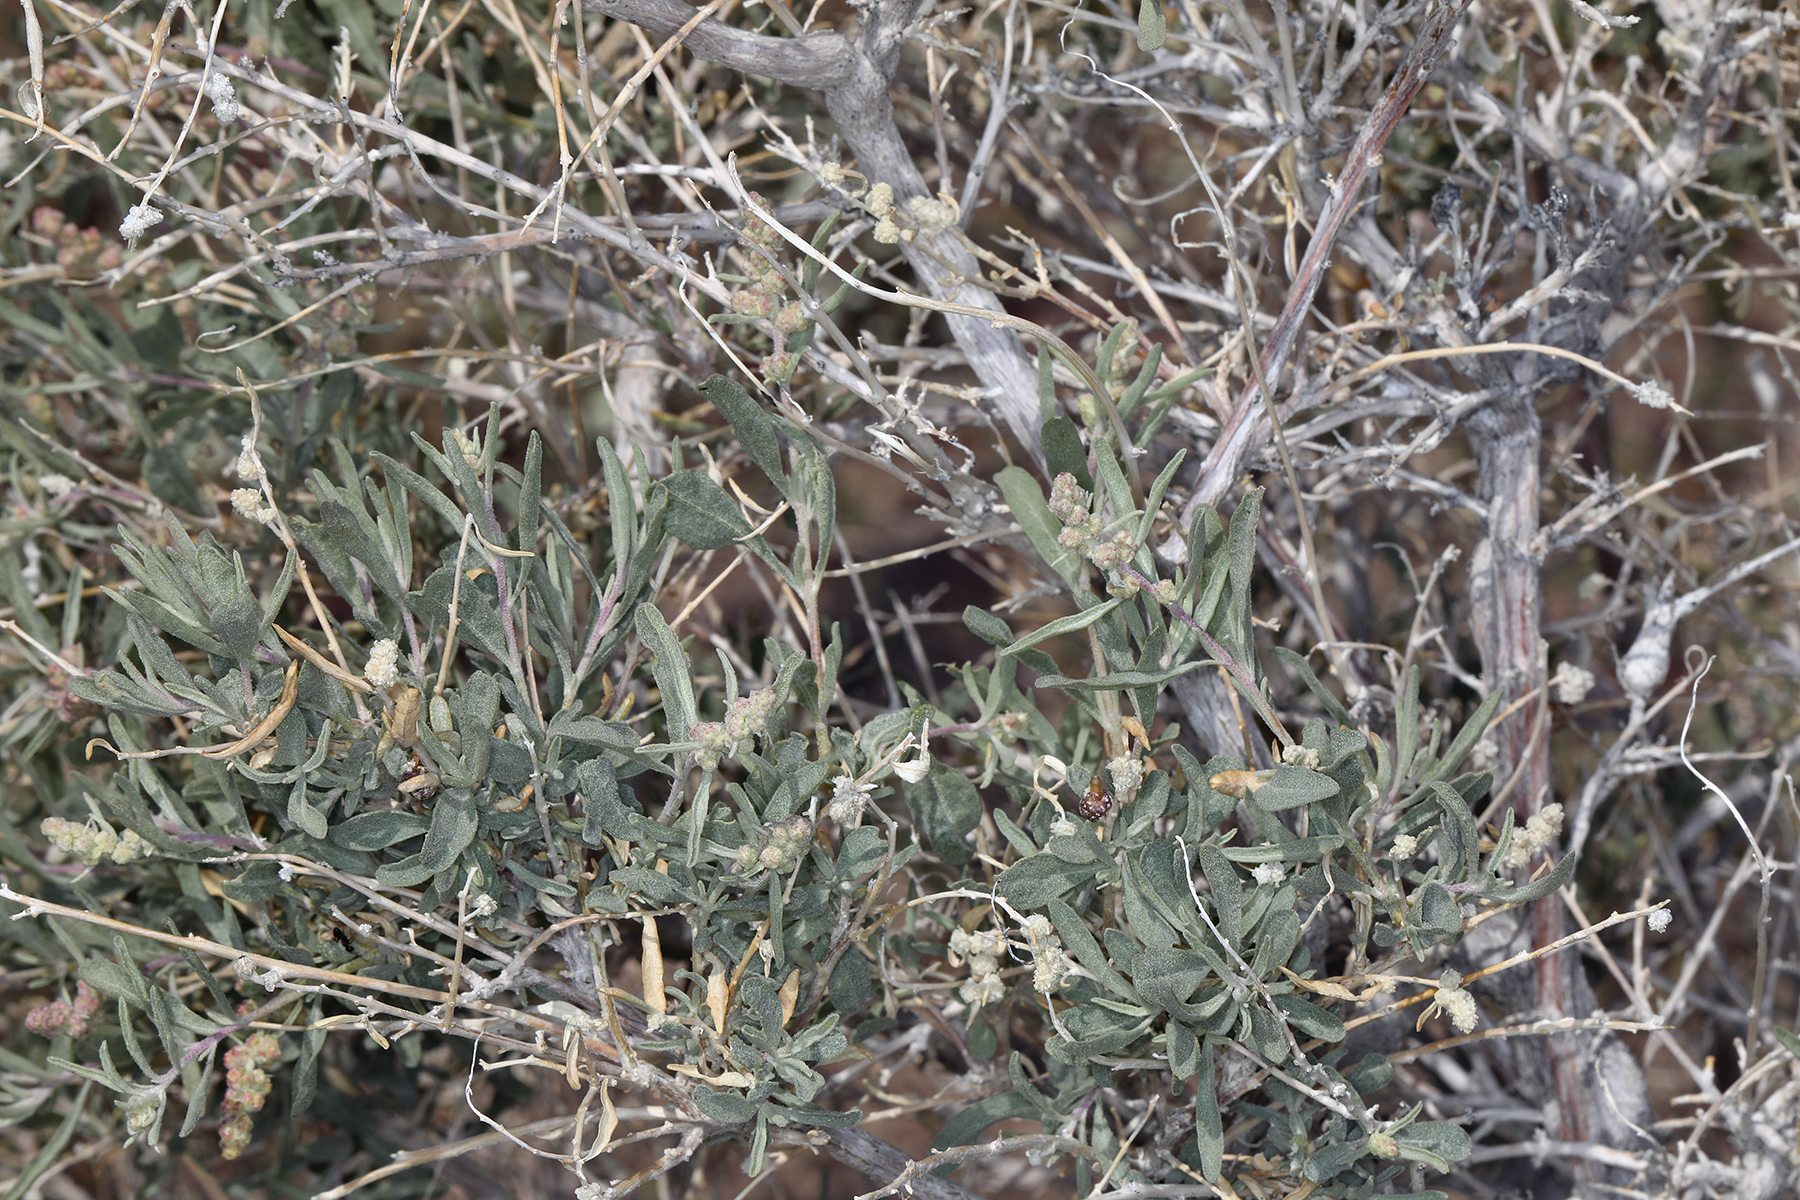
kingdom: Plantae
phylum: Tracheophyta
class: Magnoliopsida
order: Caryophyllales
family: Amaranthaceae
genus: Atriplex
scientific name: Atriplex canescens
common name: Four-wing saltbush
